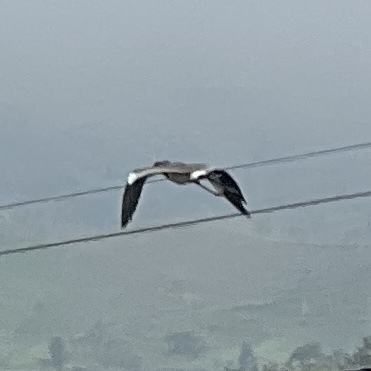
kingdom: Animalia
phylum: Chordata
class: Aves
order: Charadriiformes
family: Charadriidae
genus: Vanellus
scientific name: Vanellus chilensis
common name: Southern lapwing
